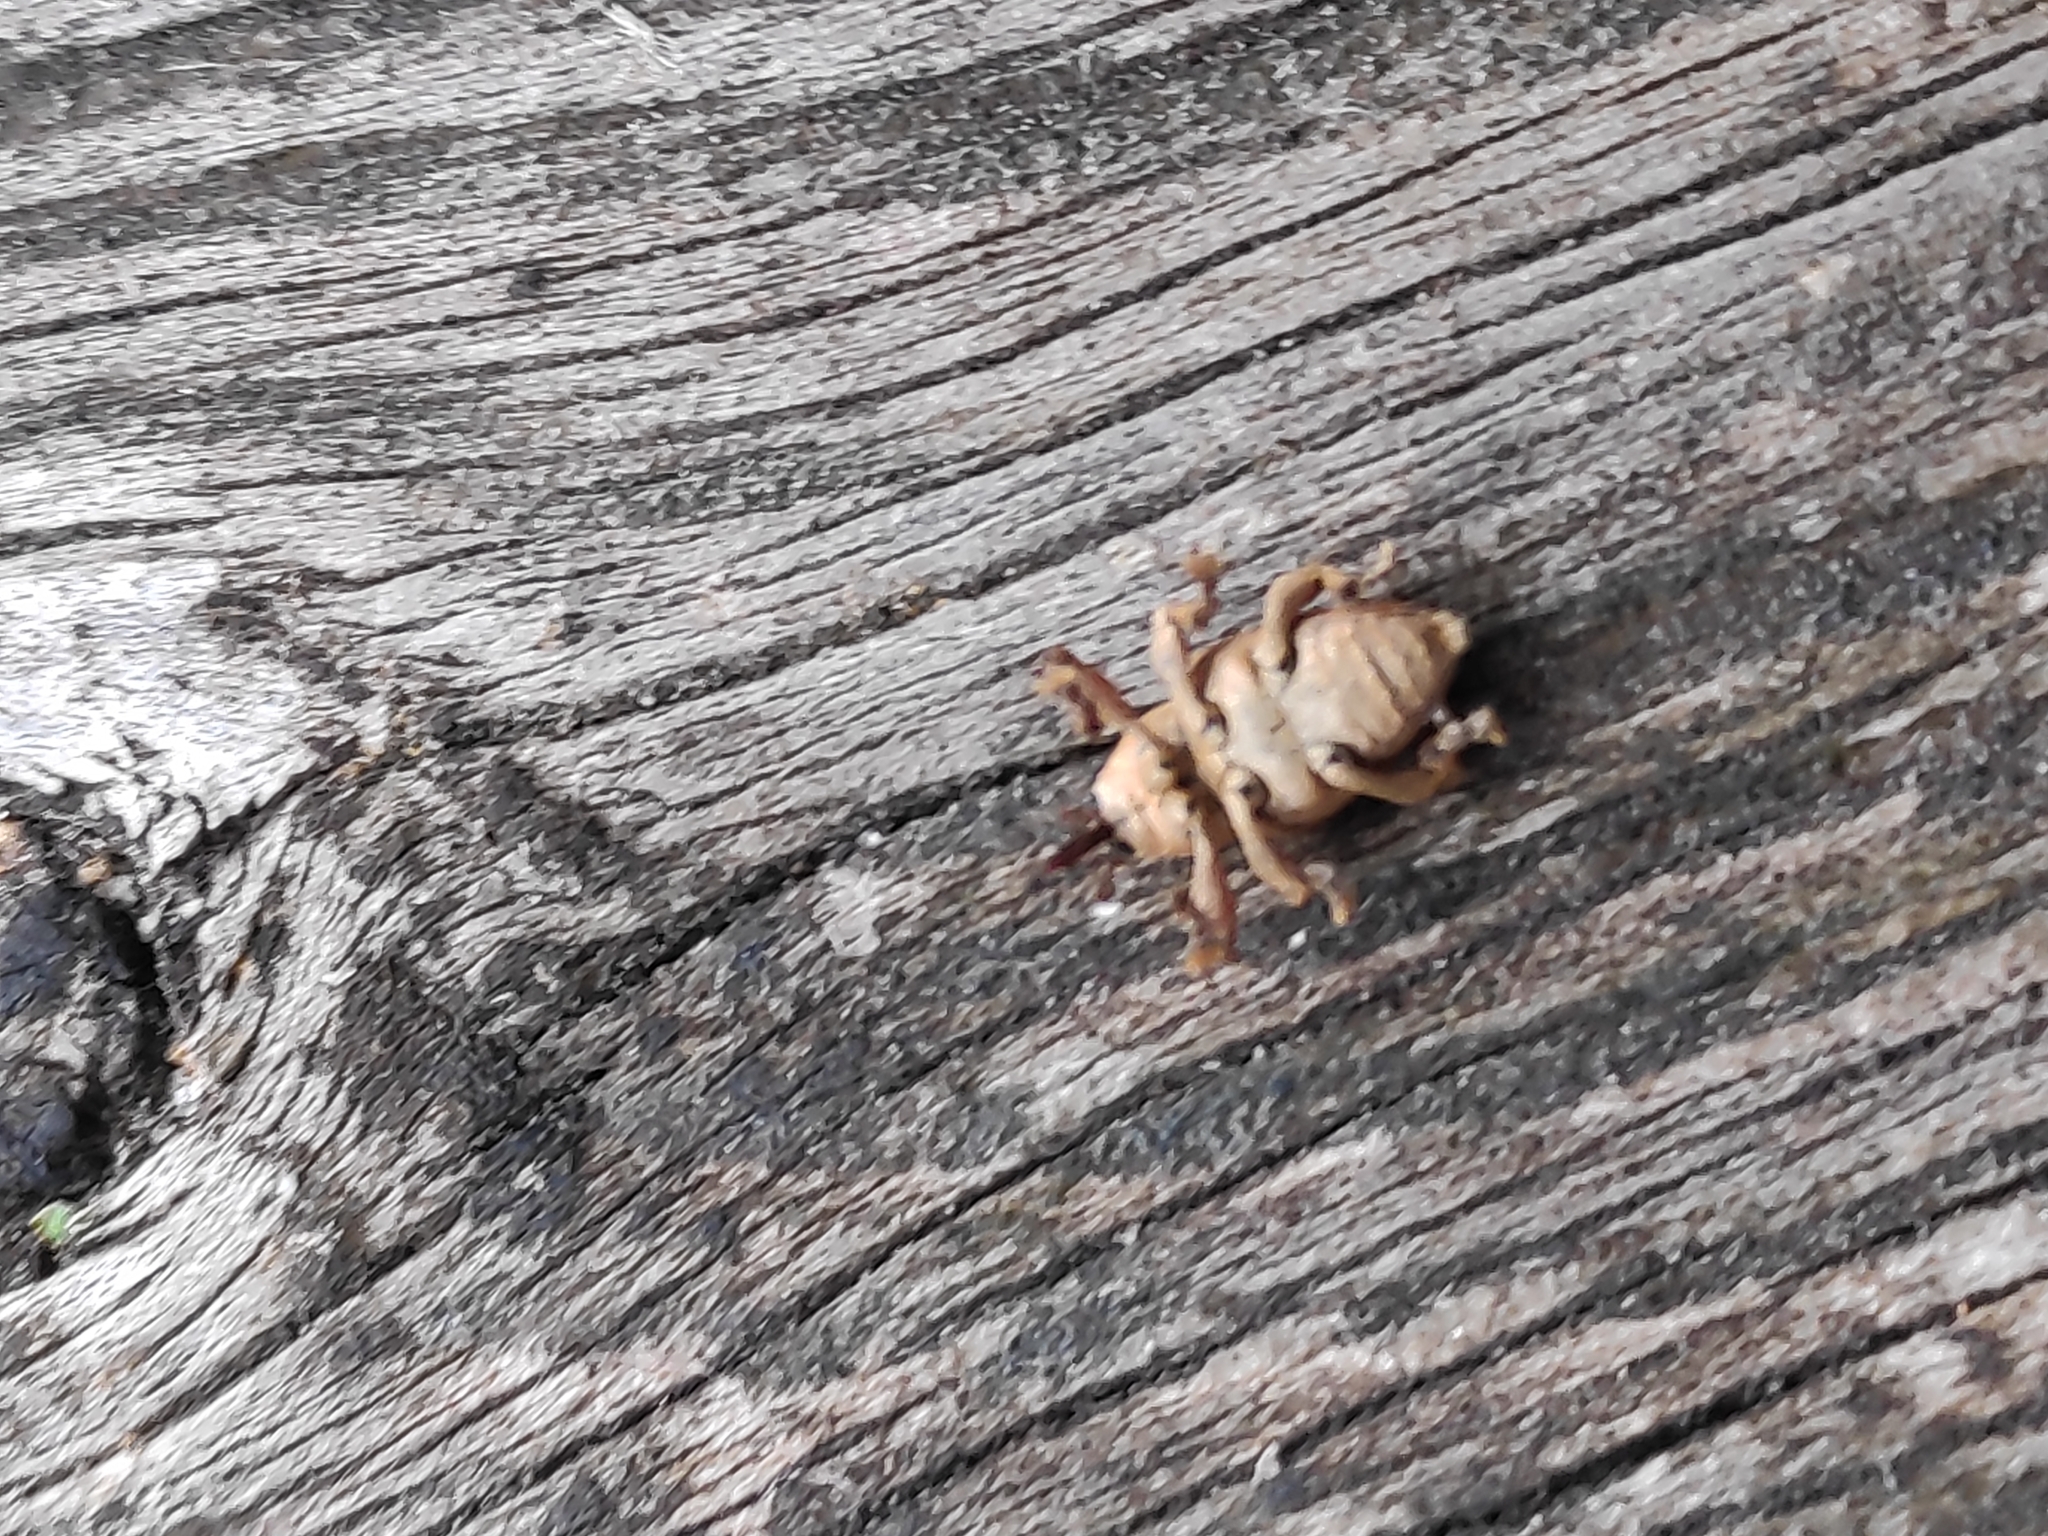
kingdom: Animalia
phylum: Arthropoda
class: Insecta
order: Coleoptera
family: Curculionidae
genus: Curculio
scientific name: Curculio glandium
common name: Acorn weevil
